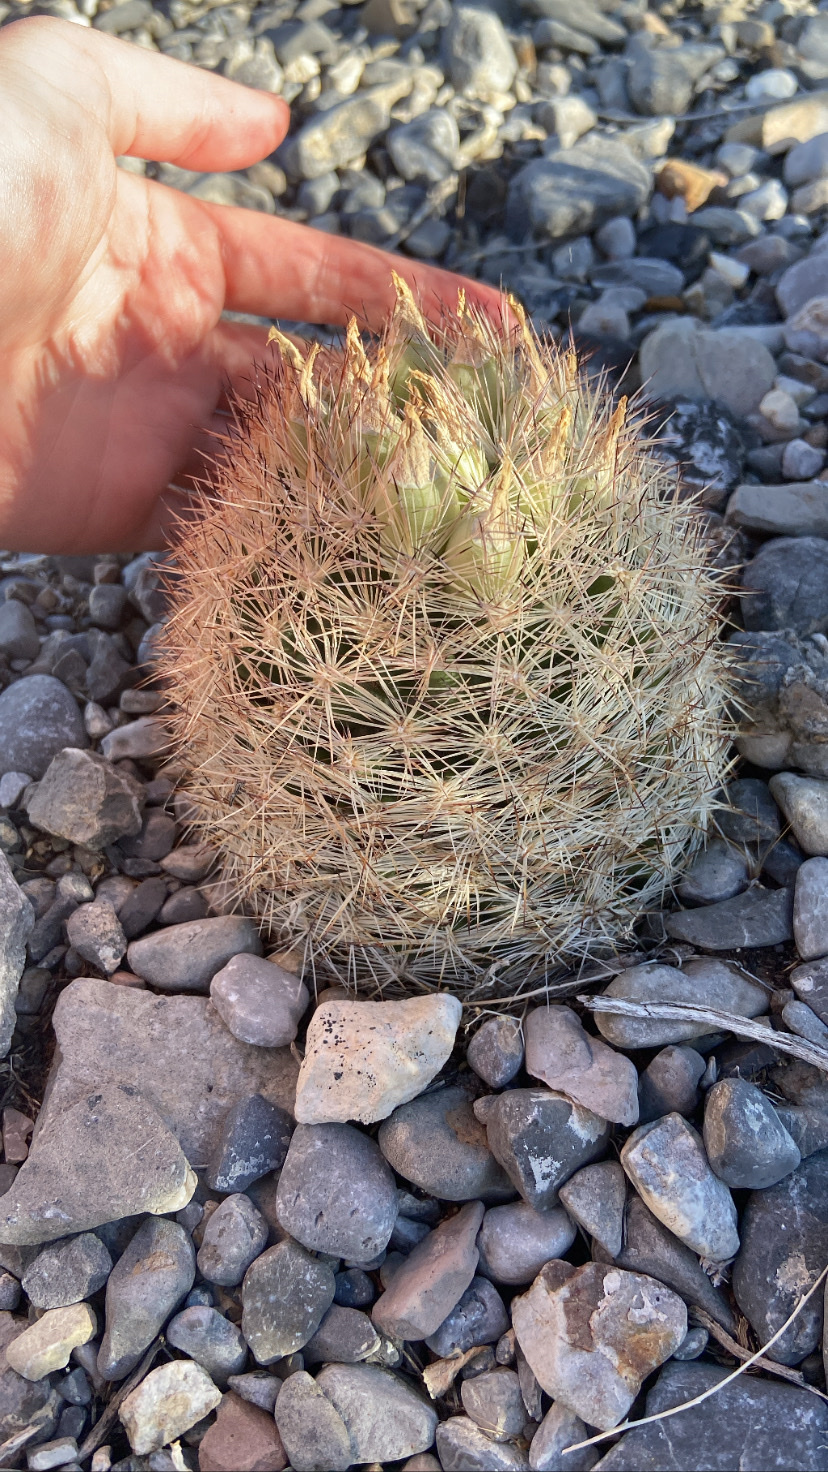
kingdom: Plantae
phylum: Tracheophyta
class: Magnoliopsida
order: Caryophyllales
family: Cactaceae
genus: Pelecyphora
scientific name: Pelecyphora dasyacantha
